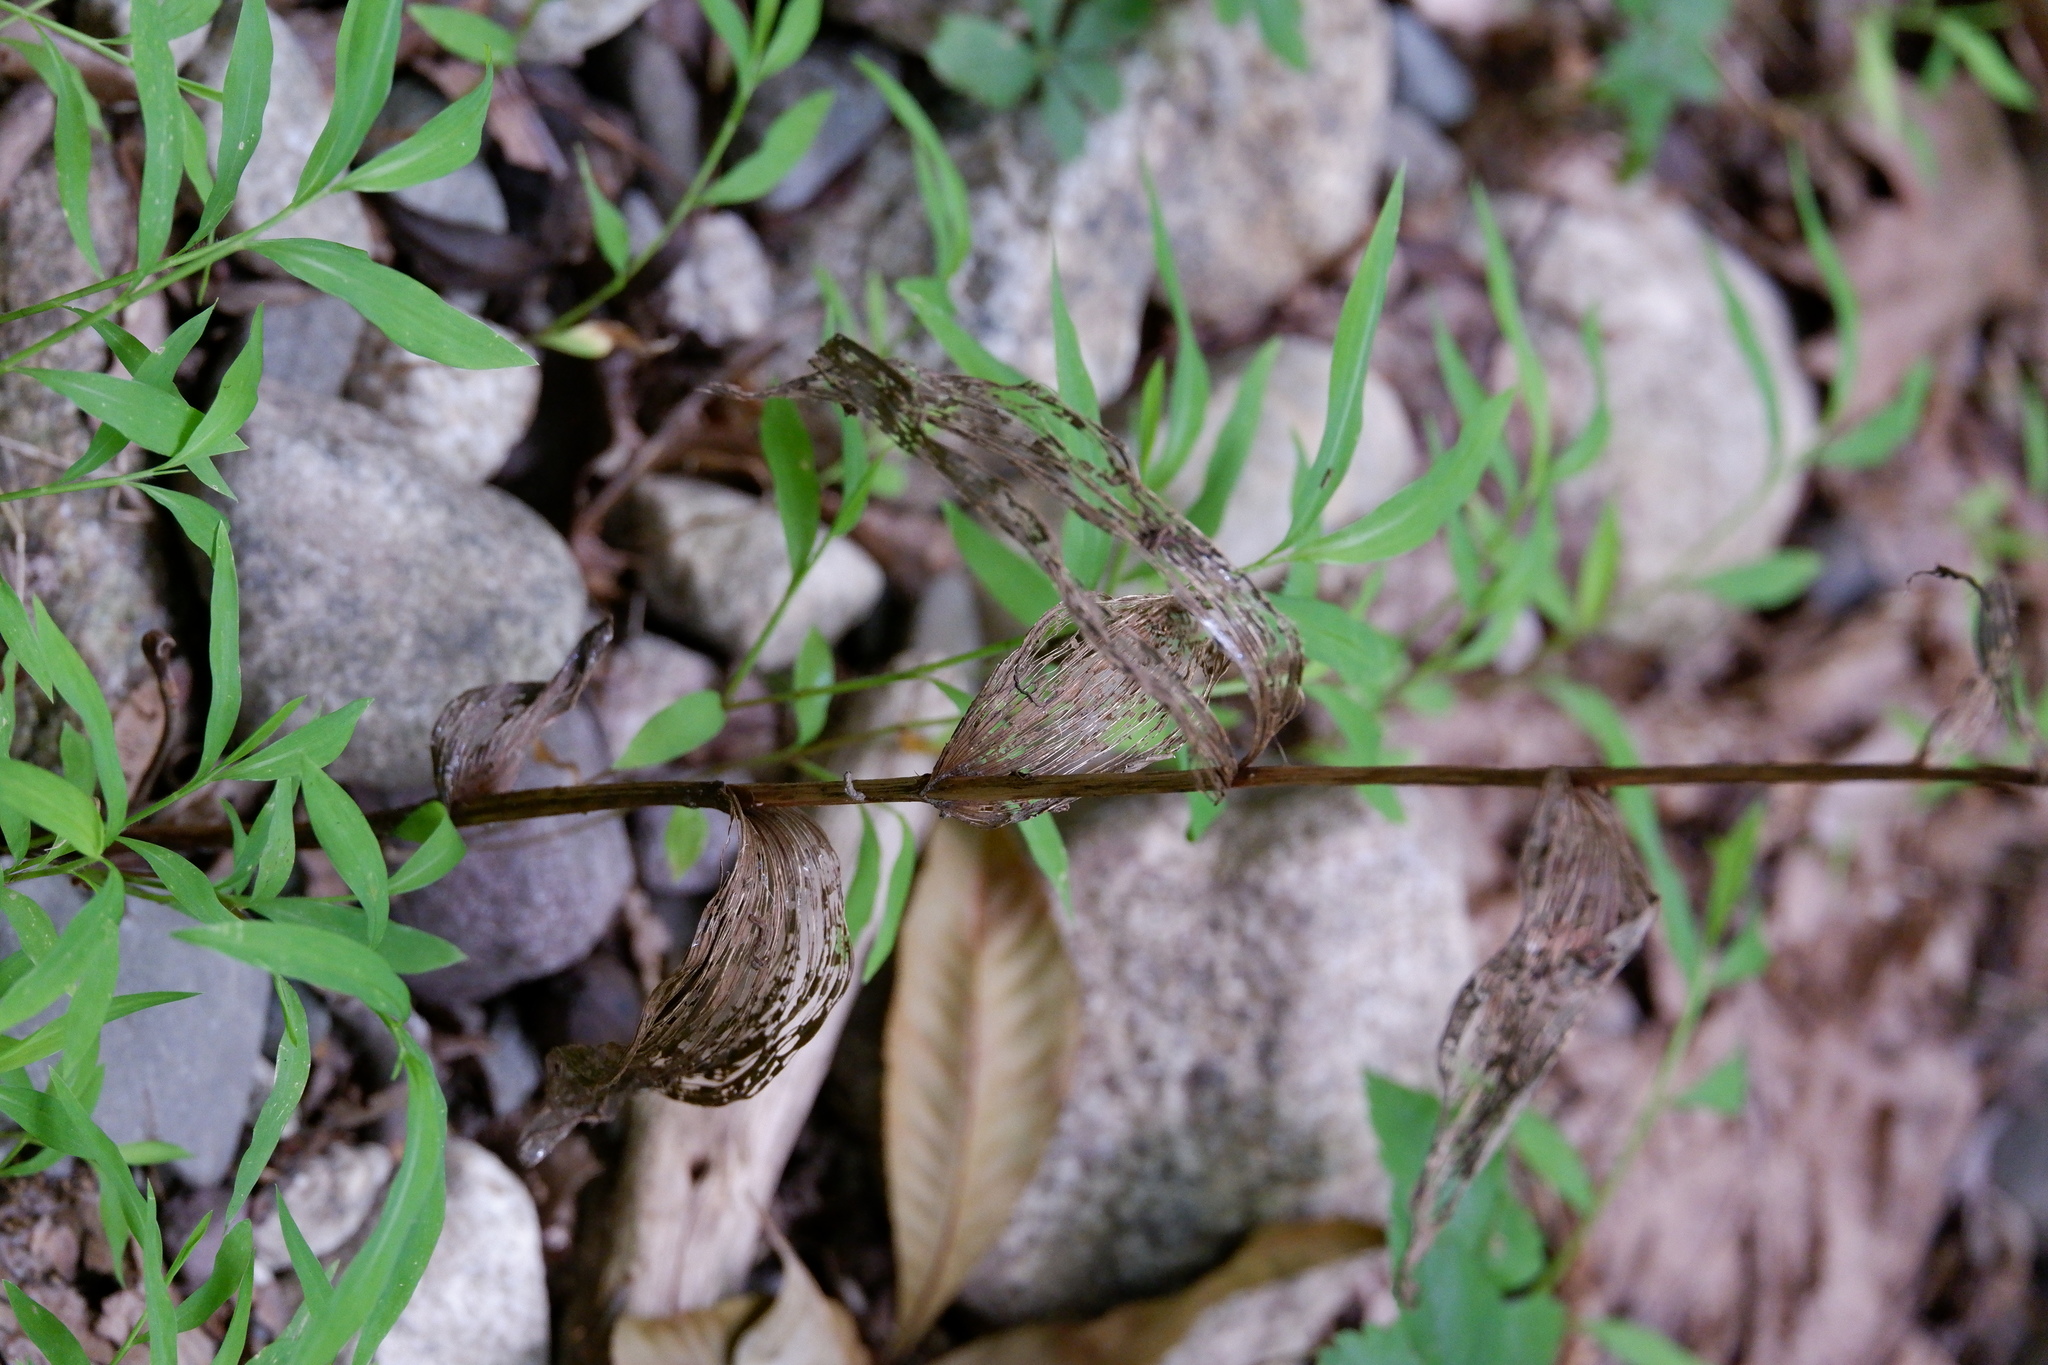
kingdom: Plantae
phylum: Tracheophyta
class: Liliopsida
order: Asparagales
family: Orchidaceae
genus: Epipactis
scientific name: Epipactis helleborine
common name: Broad-leaved helleborine
